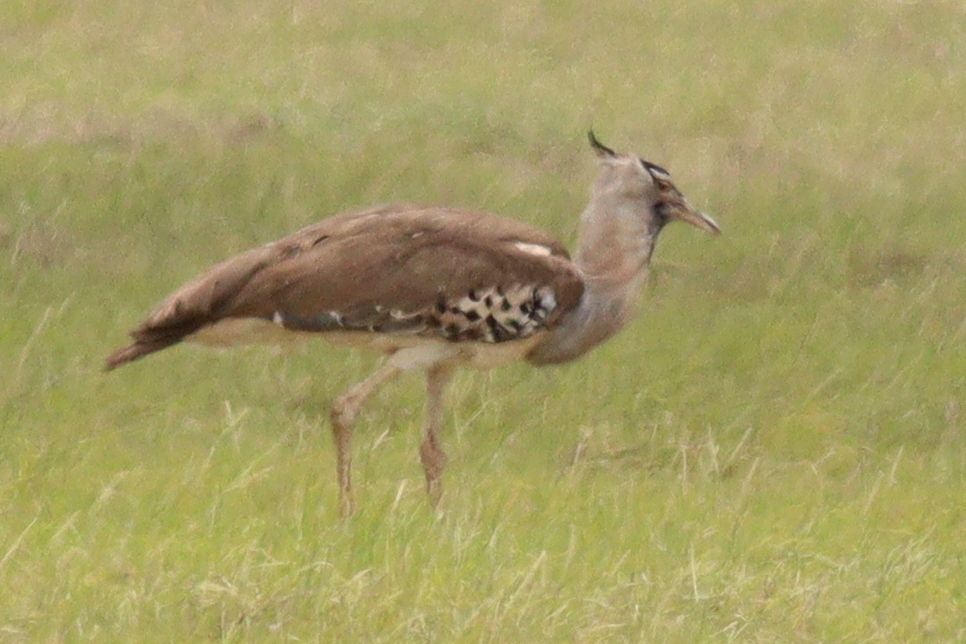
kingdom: Animalia
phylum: Chordata
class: Aves
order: Otidiformes
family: Otididae
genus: Ardeotis
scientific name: Ardeotis kori
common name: Kori bustard
